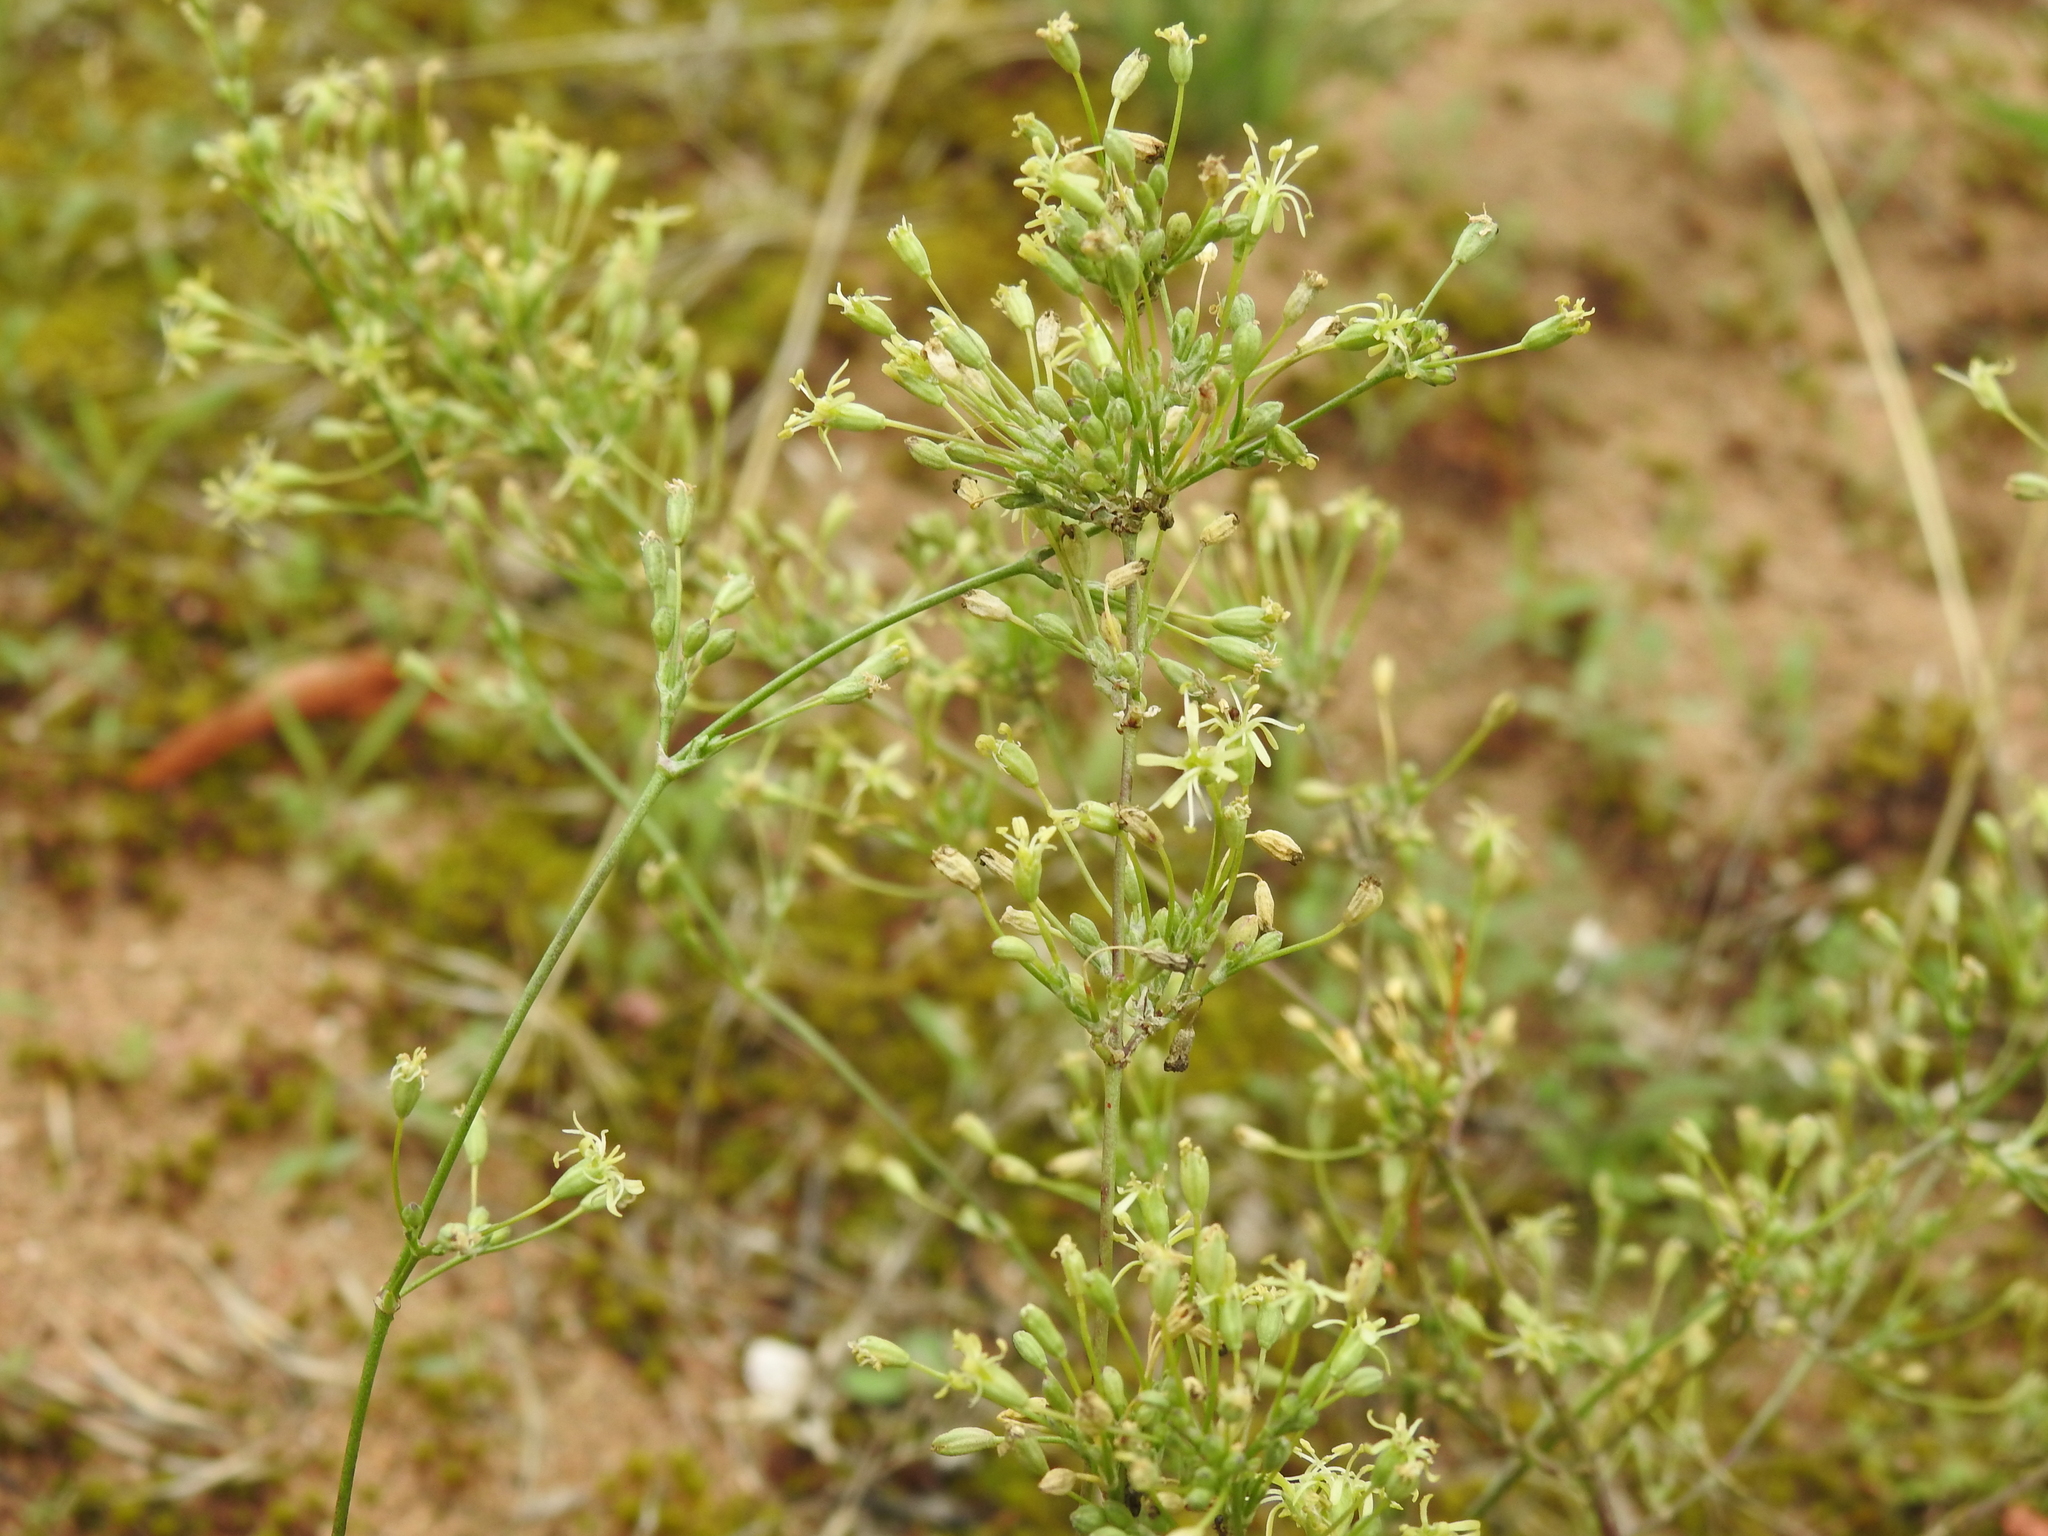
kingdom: Plantae
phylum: Tracheophyta
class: Magnoliopsida
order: Caryophyllales
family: Caryophyllaceae
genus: Silene
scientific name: Silene otites
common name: Spanish catchfly
